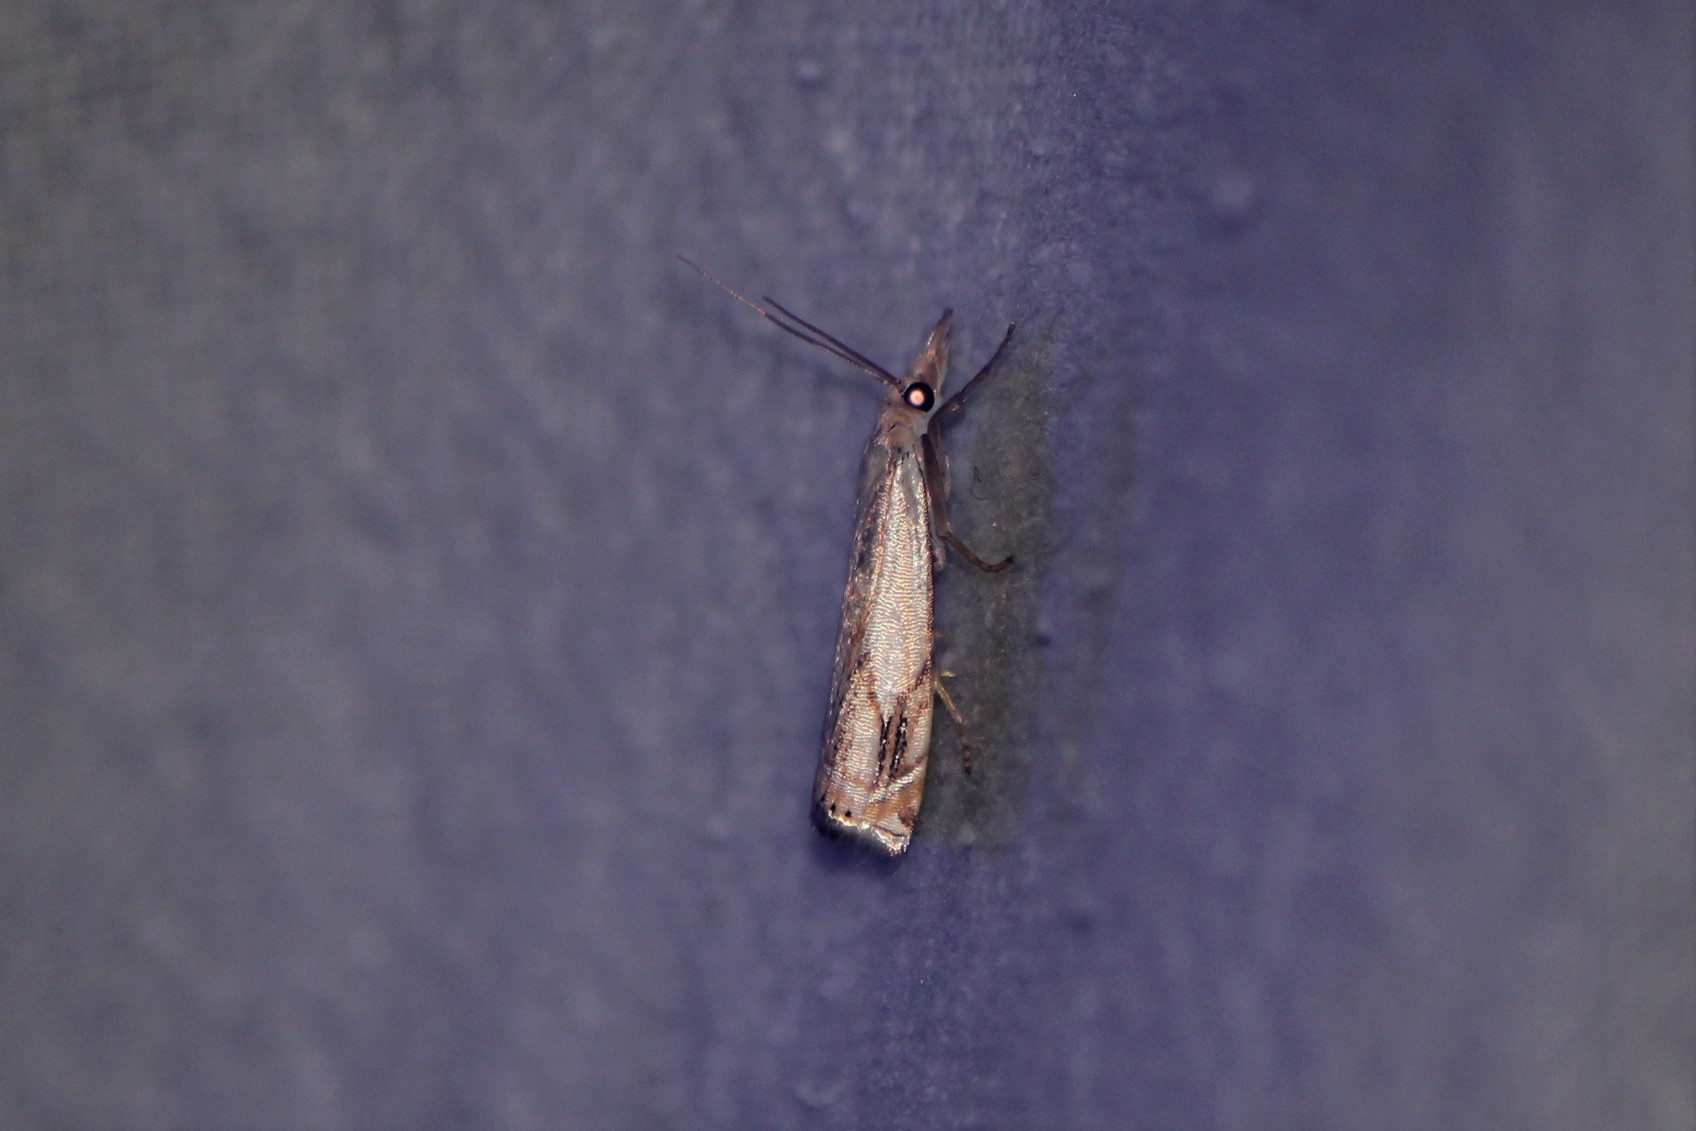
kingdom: Animalia
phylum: Arthropoda
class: Insecta
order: Lepidoptera
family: Crambidae
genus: Crambus
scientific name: Crambus agitatellus
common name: Double-banded grass-veneer
